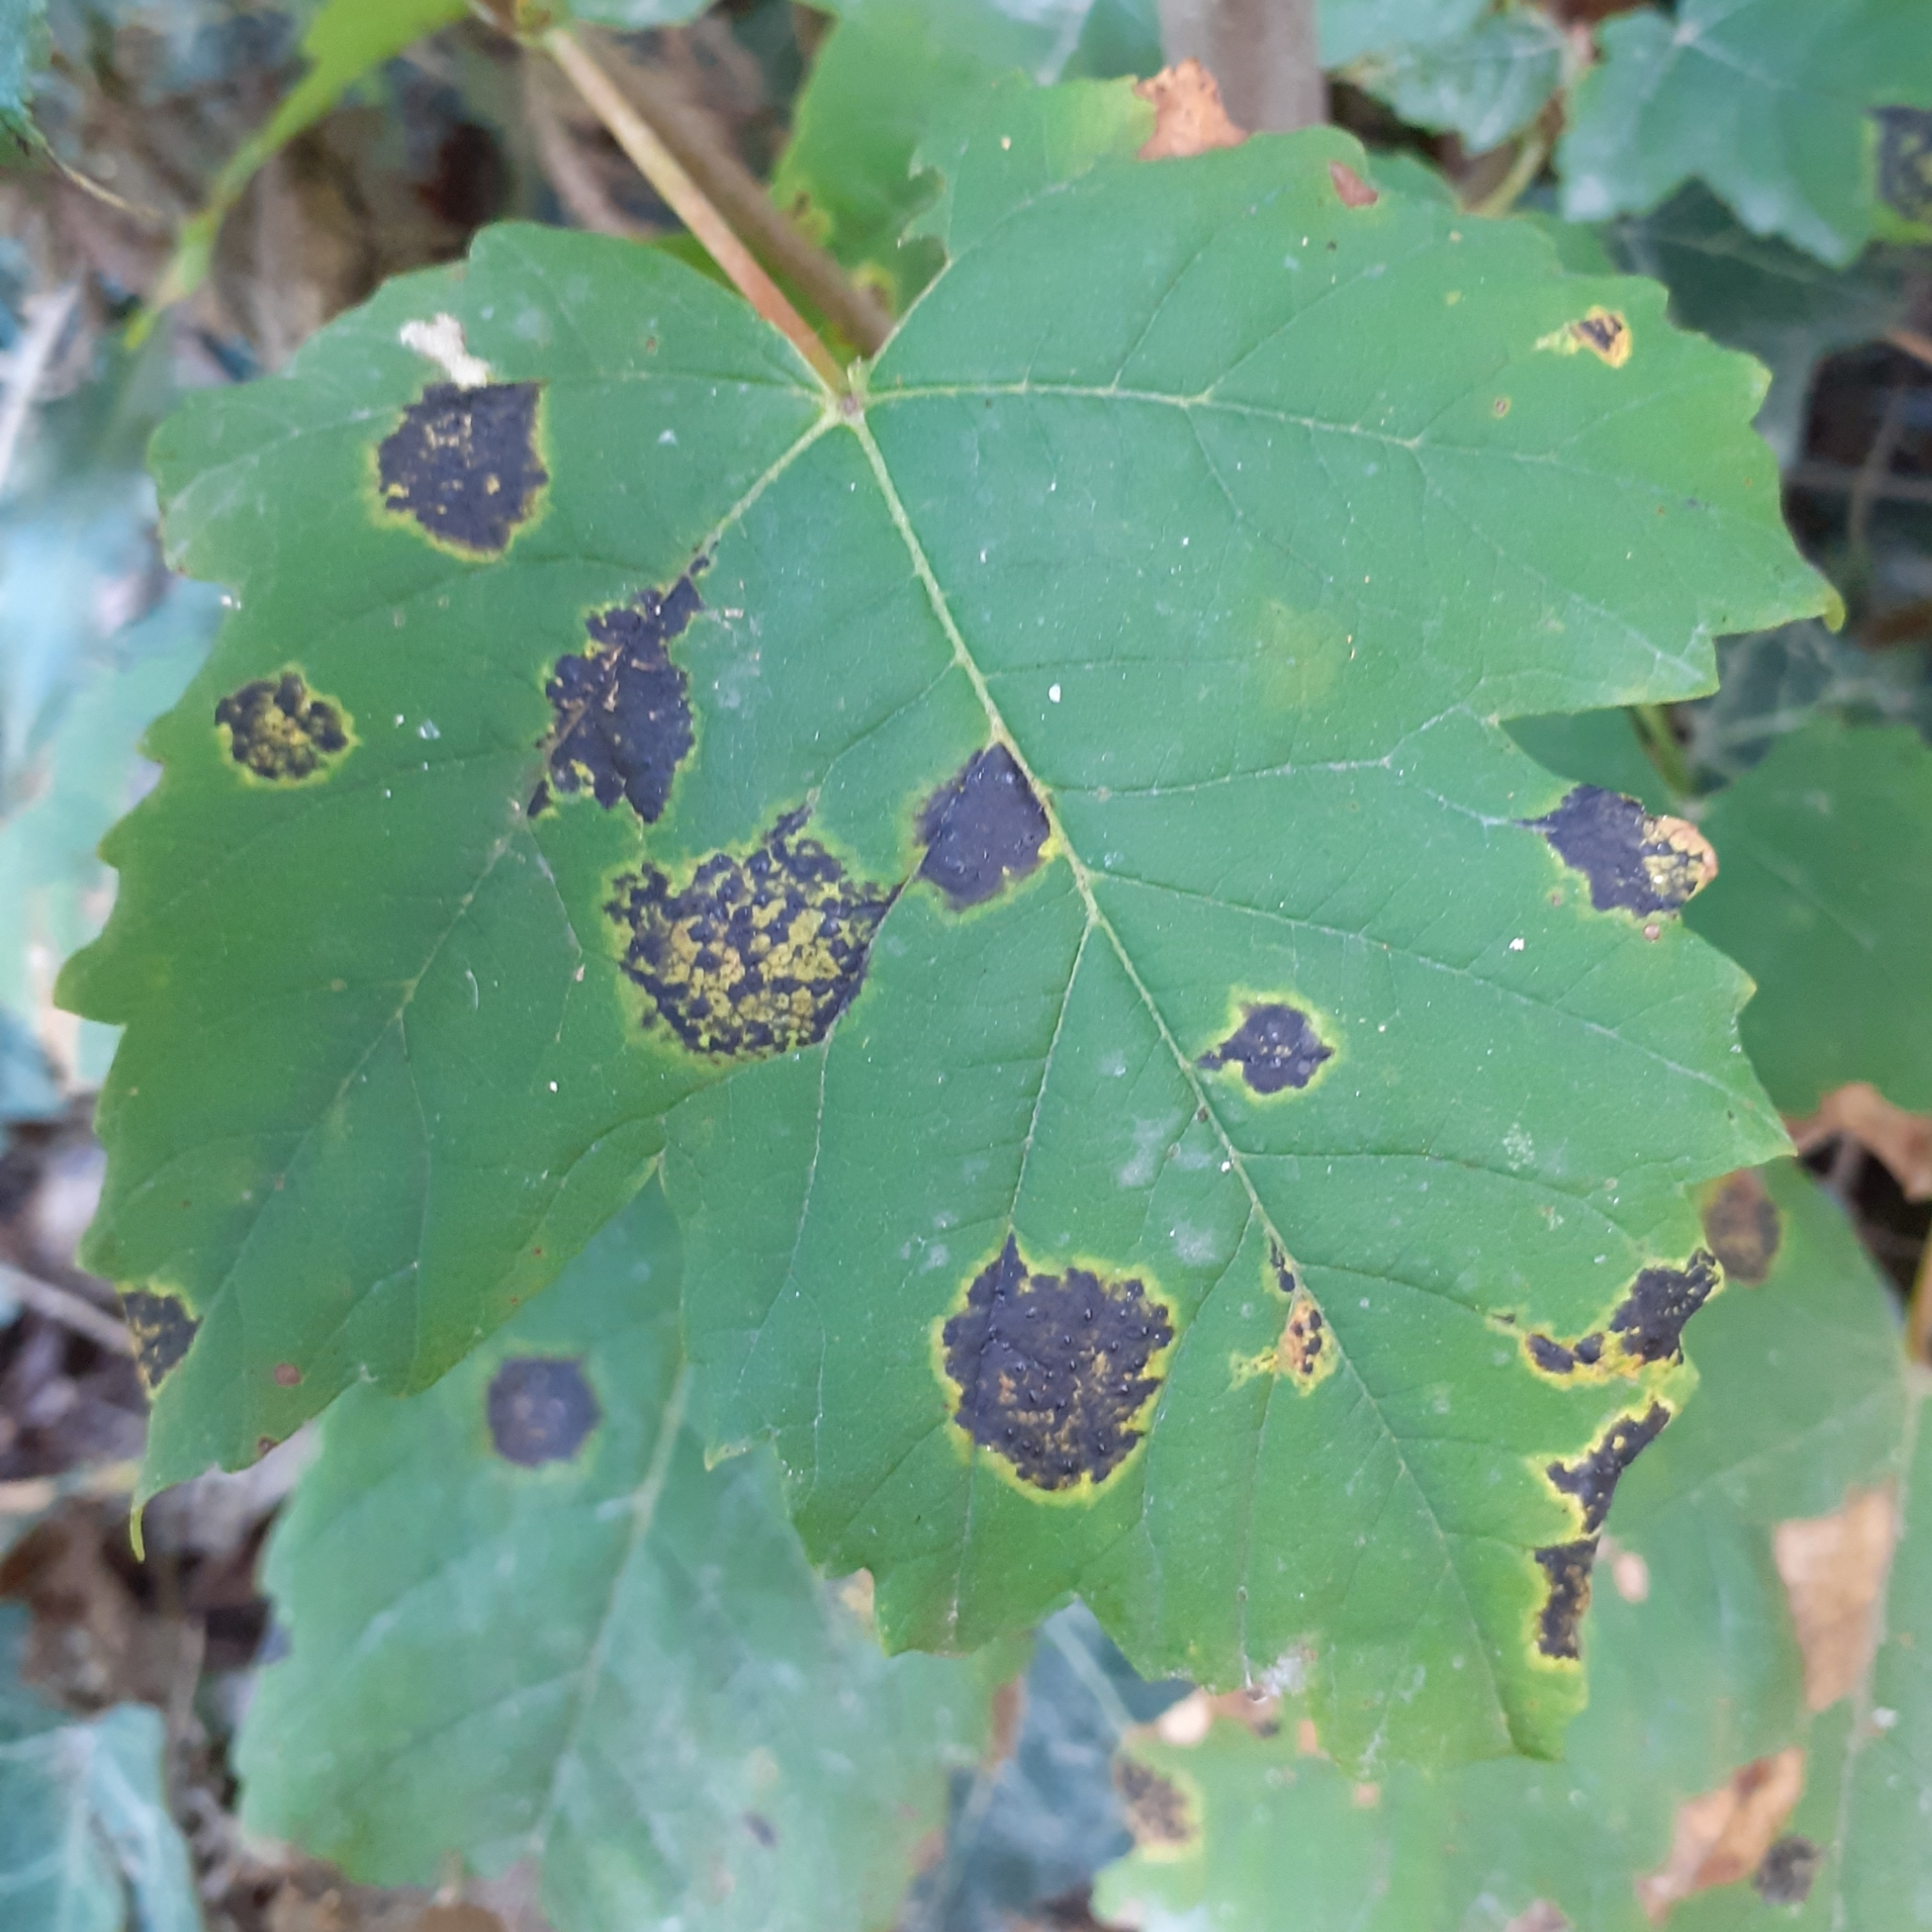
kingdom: Fungi
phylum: Ascomycota
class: Leotiomycetes
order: Rhytismatales
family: Rhytismataceae
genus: Rhytisma
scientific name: Rhytisma acerinum
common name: European tar spot
